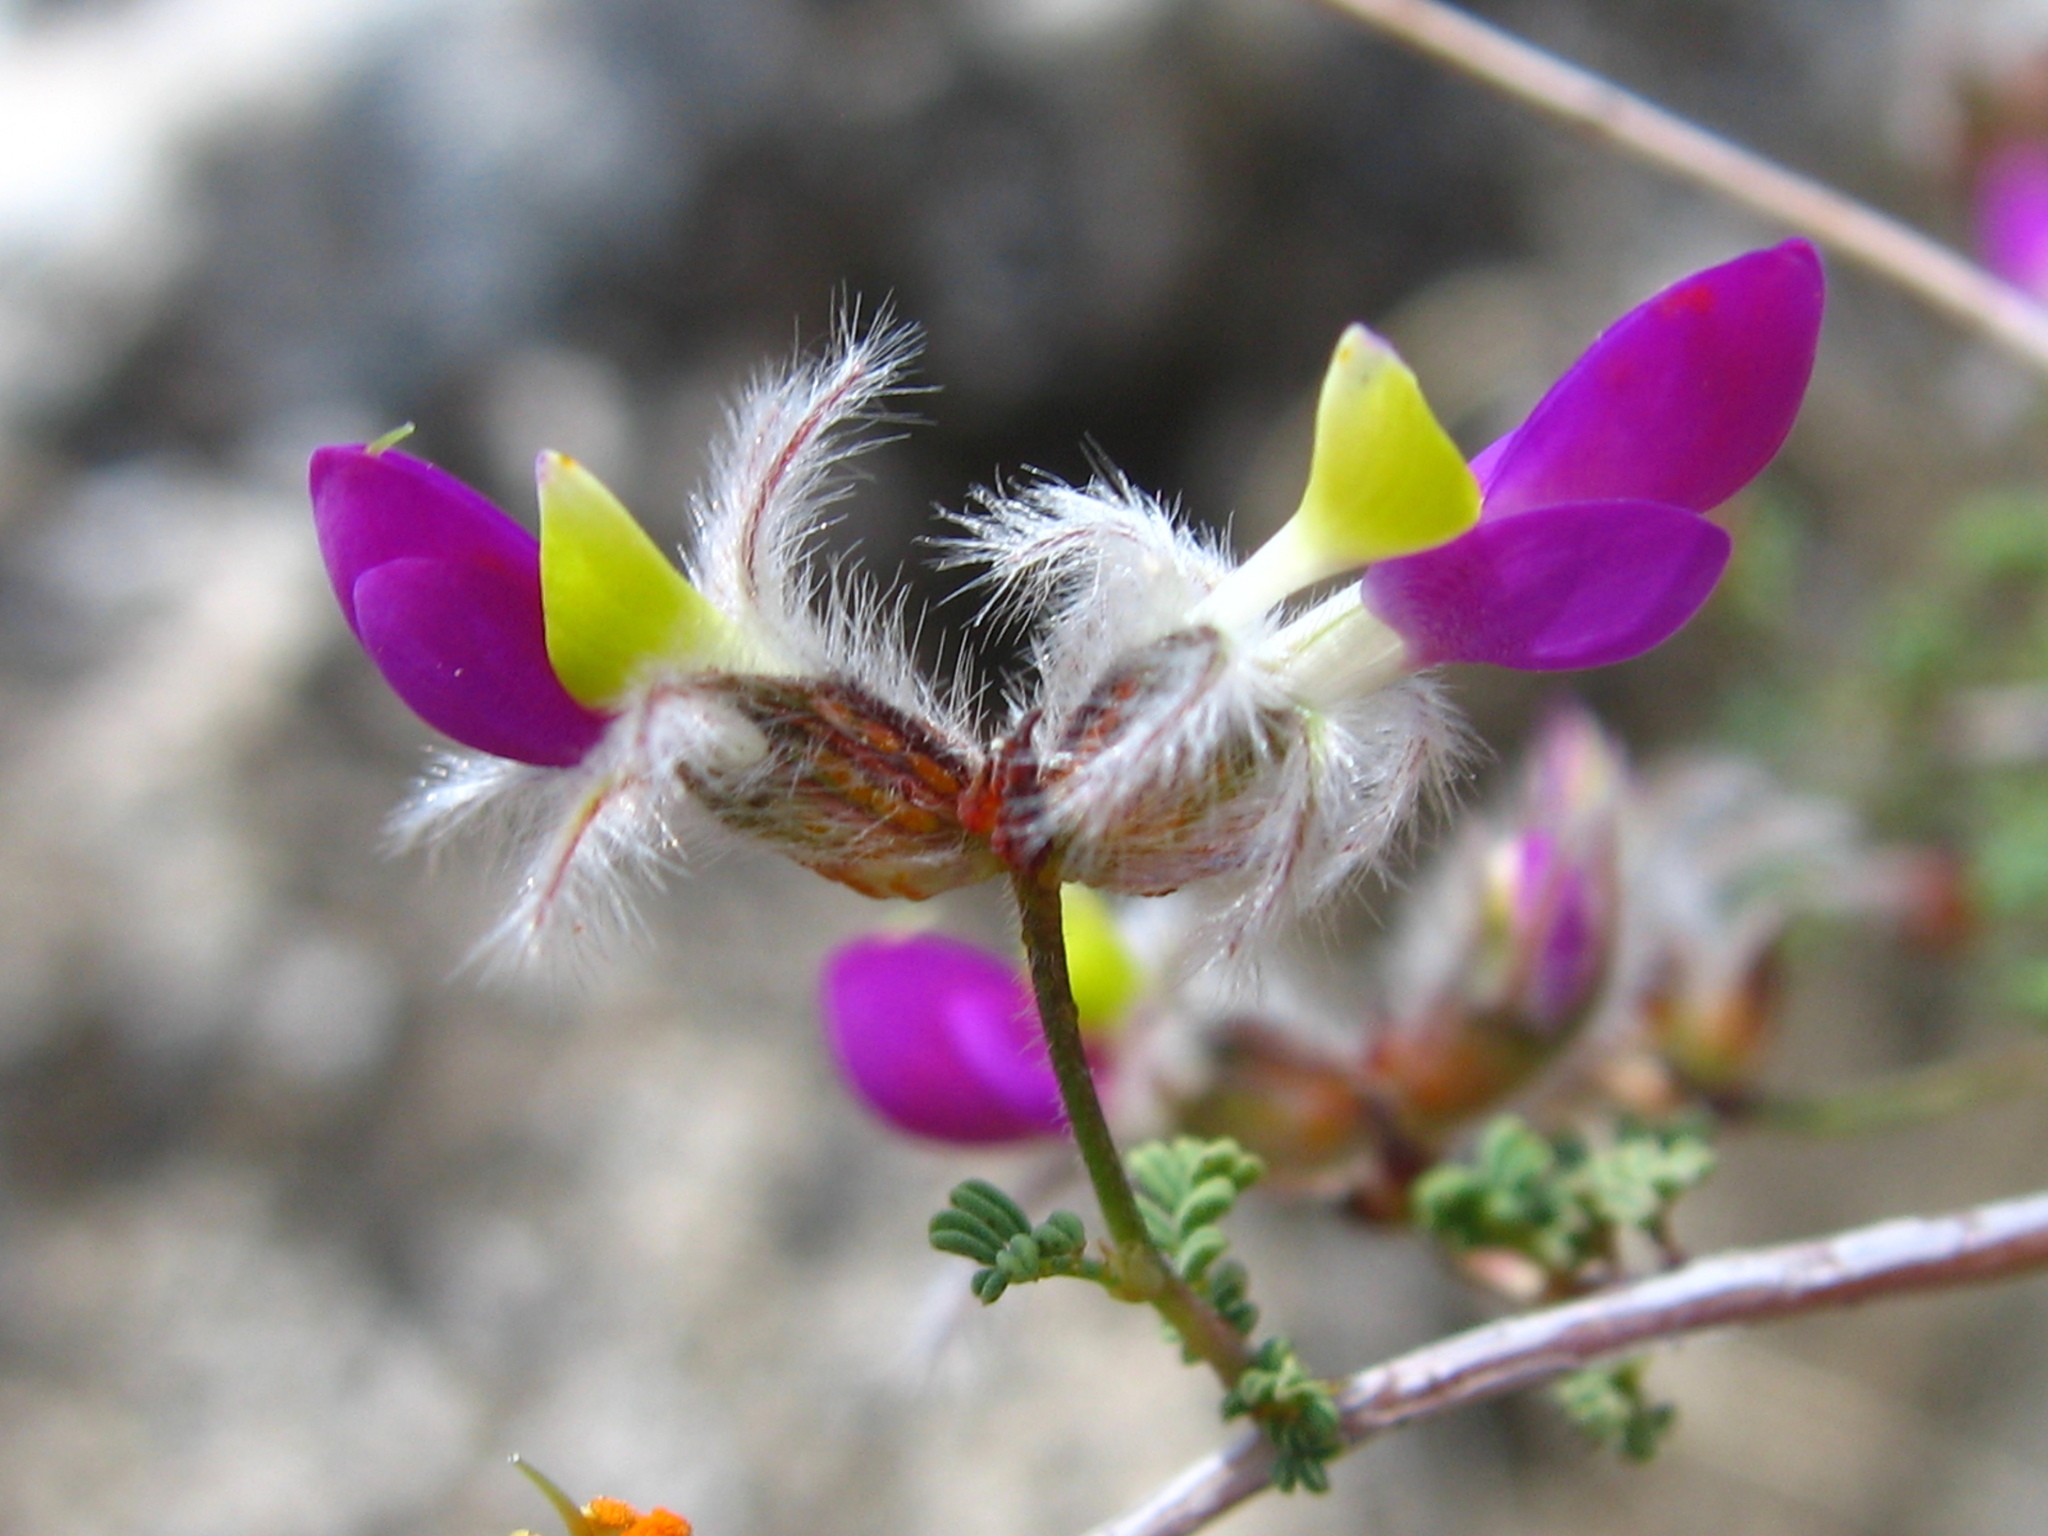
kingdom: Plantae
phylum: Tracheophyta
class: Magnoliopsida
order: Fabales
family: Fabaceae
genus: Dalea
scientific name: Dalea formosa
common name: Feather-plume dalea
